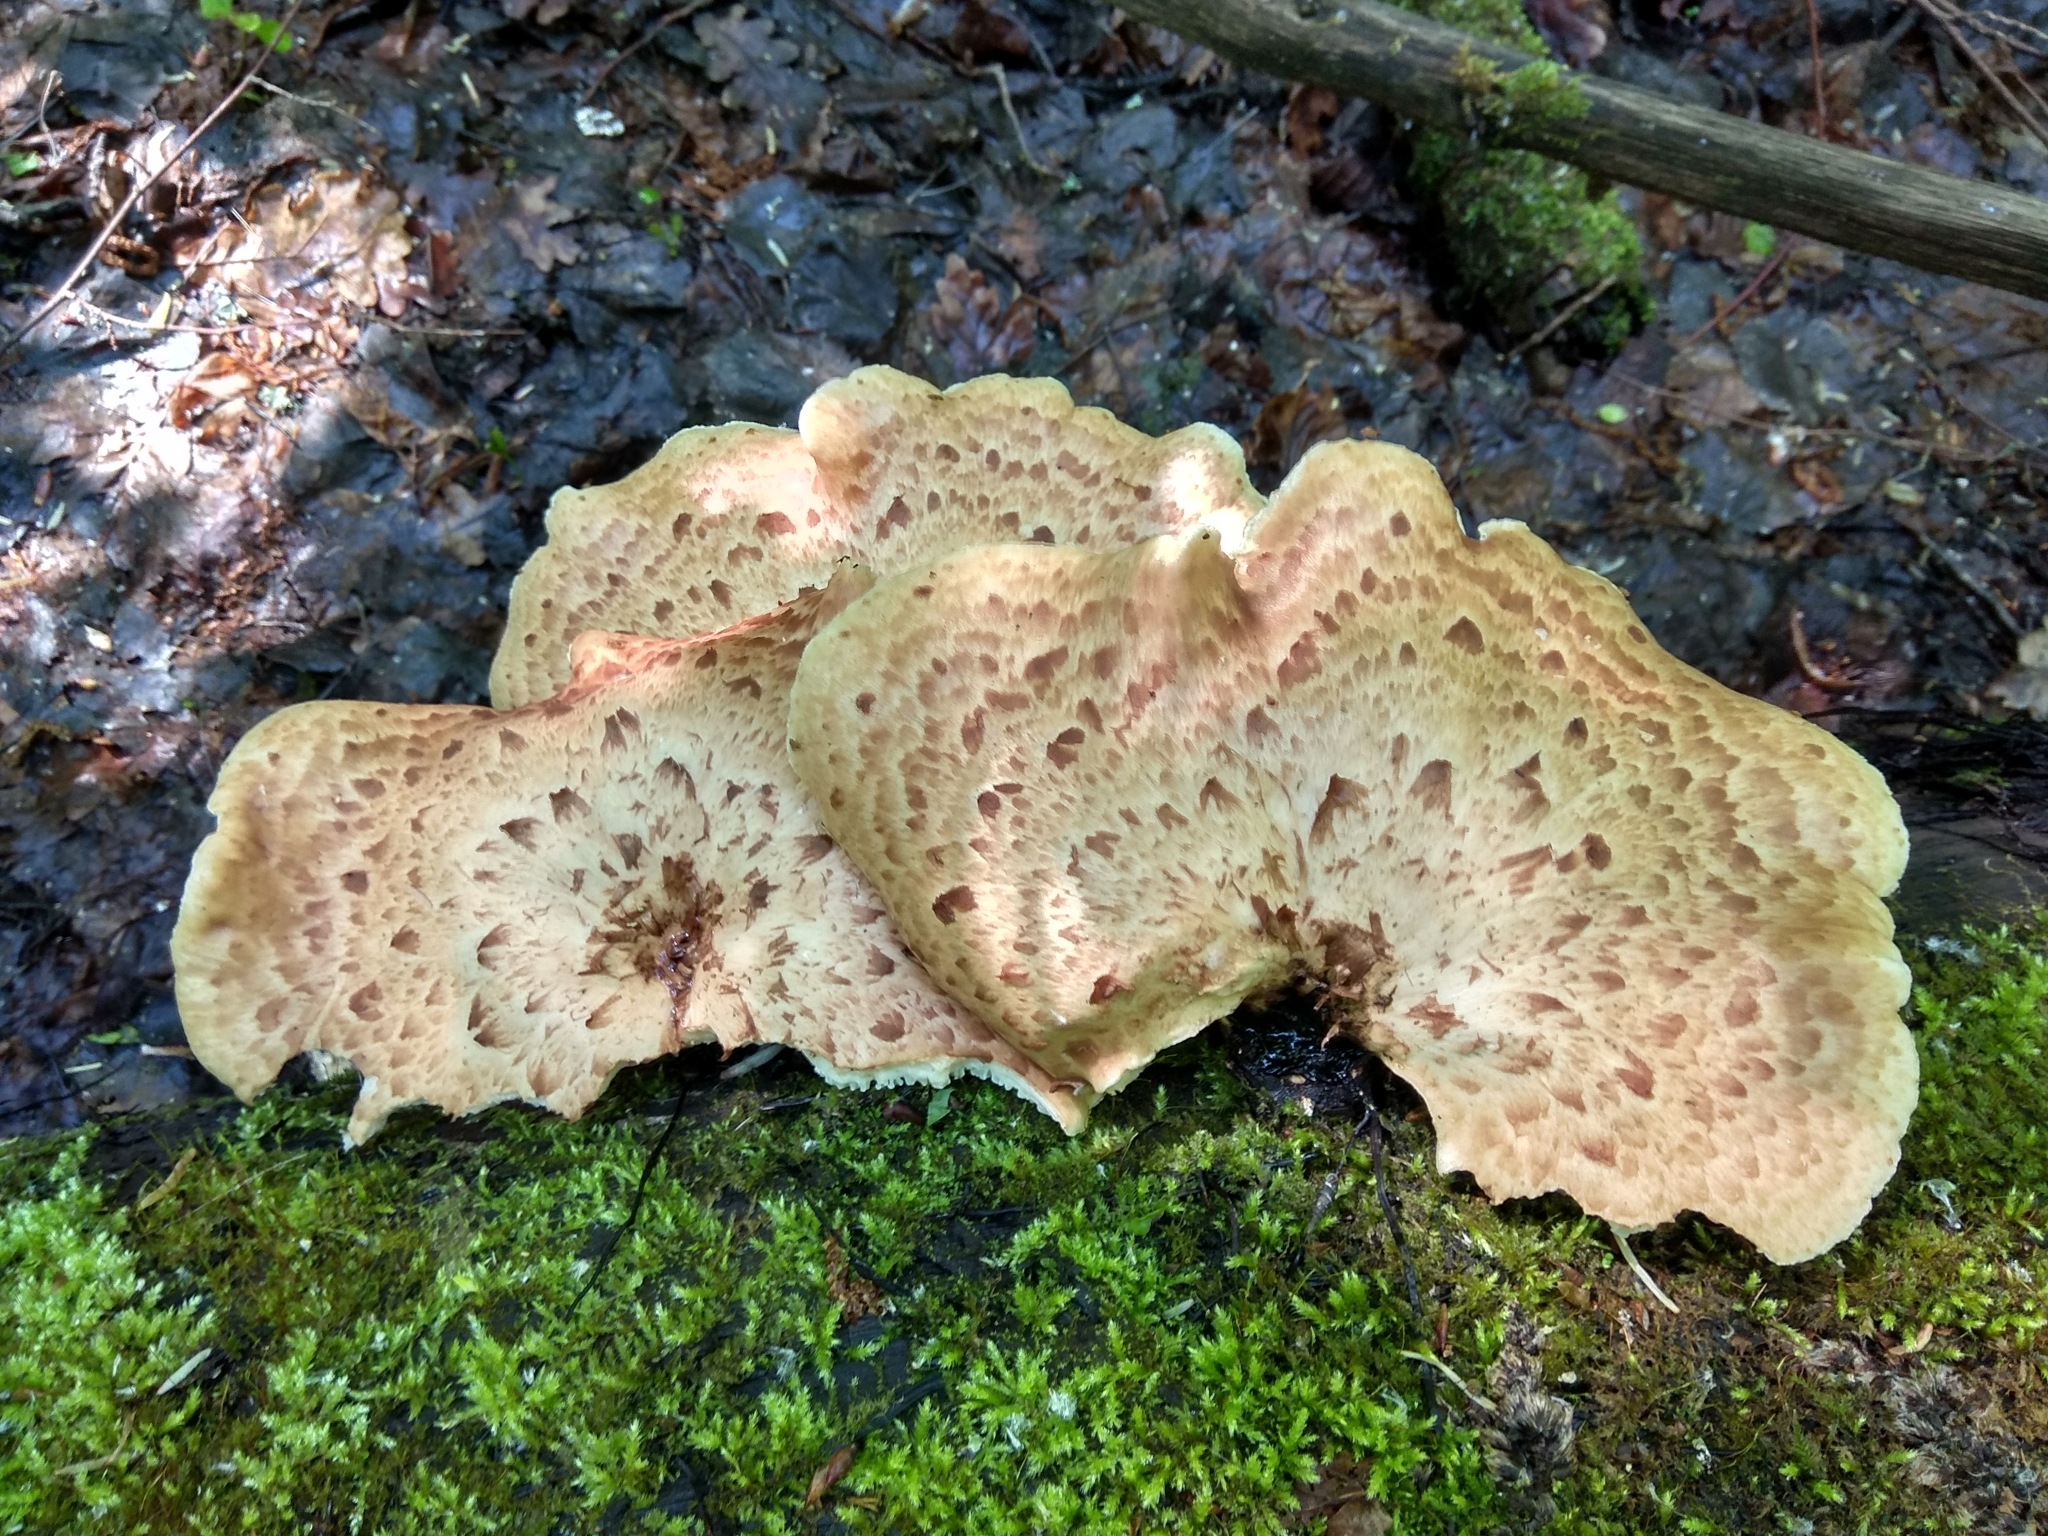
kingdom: Fungi
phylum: Basidiomycota
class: Agaricomycetes
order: Polyporales
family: Polyporaceae
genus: Cerioporus
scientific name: Cerioporus squamosus
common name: Dryad's saddle
